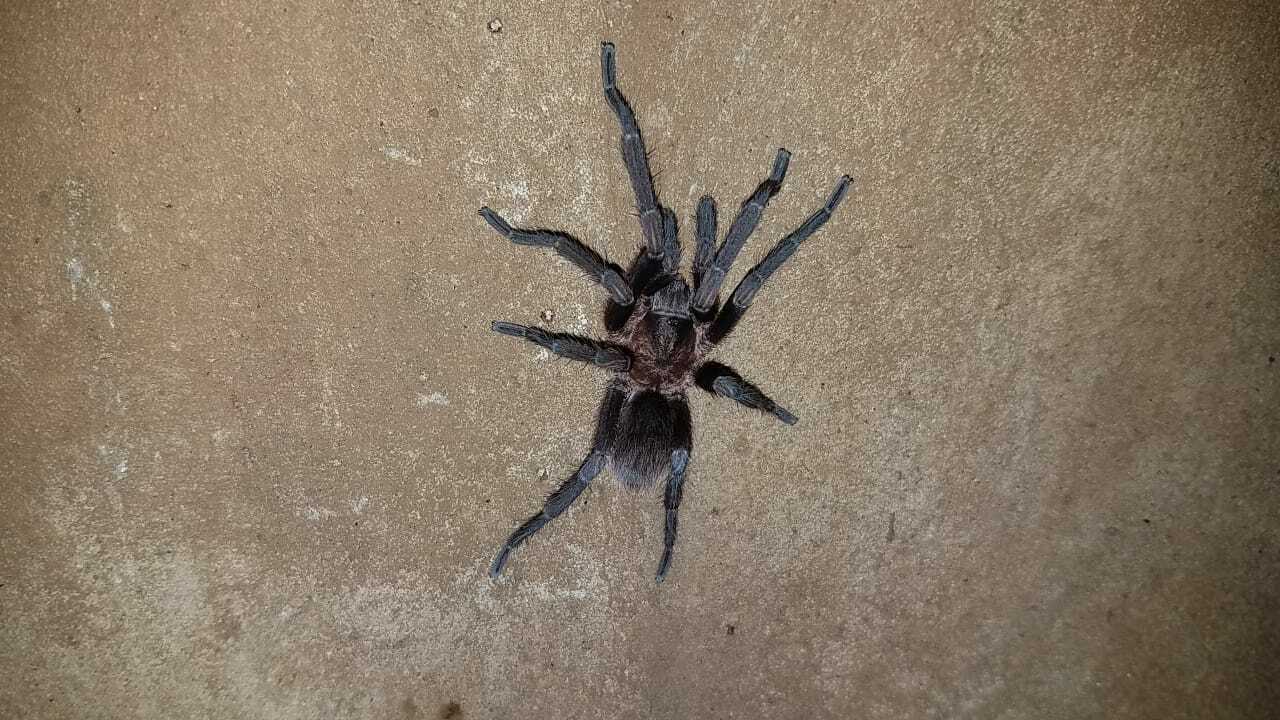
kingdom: Animalia
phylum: Arthropoda
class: Arachnida
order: Araneae
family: Theraphosidae
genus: Aphonopelma
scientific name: Aphonopelma crinirufum
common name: Tarantula spiders
